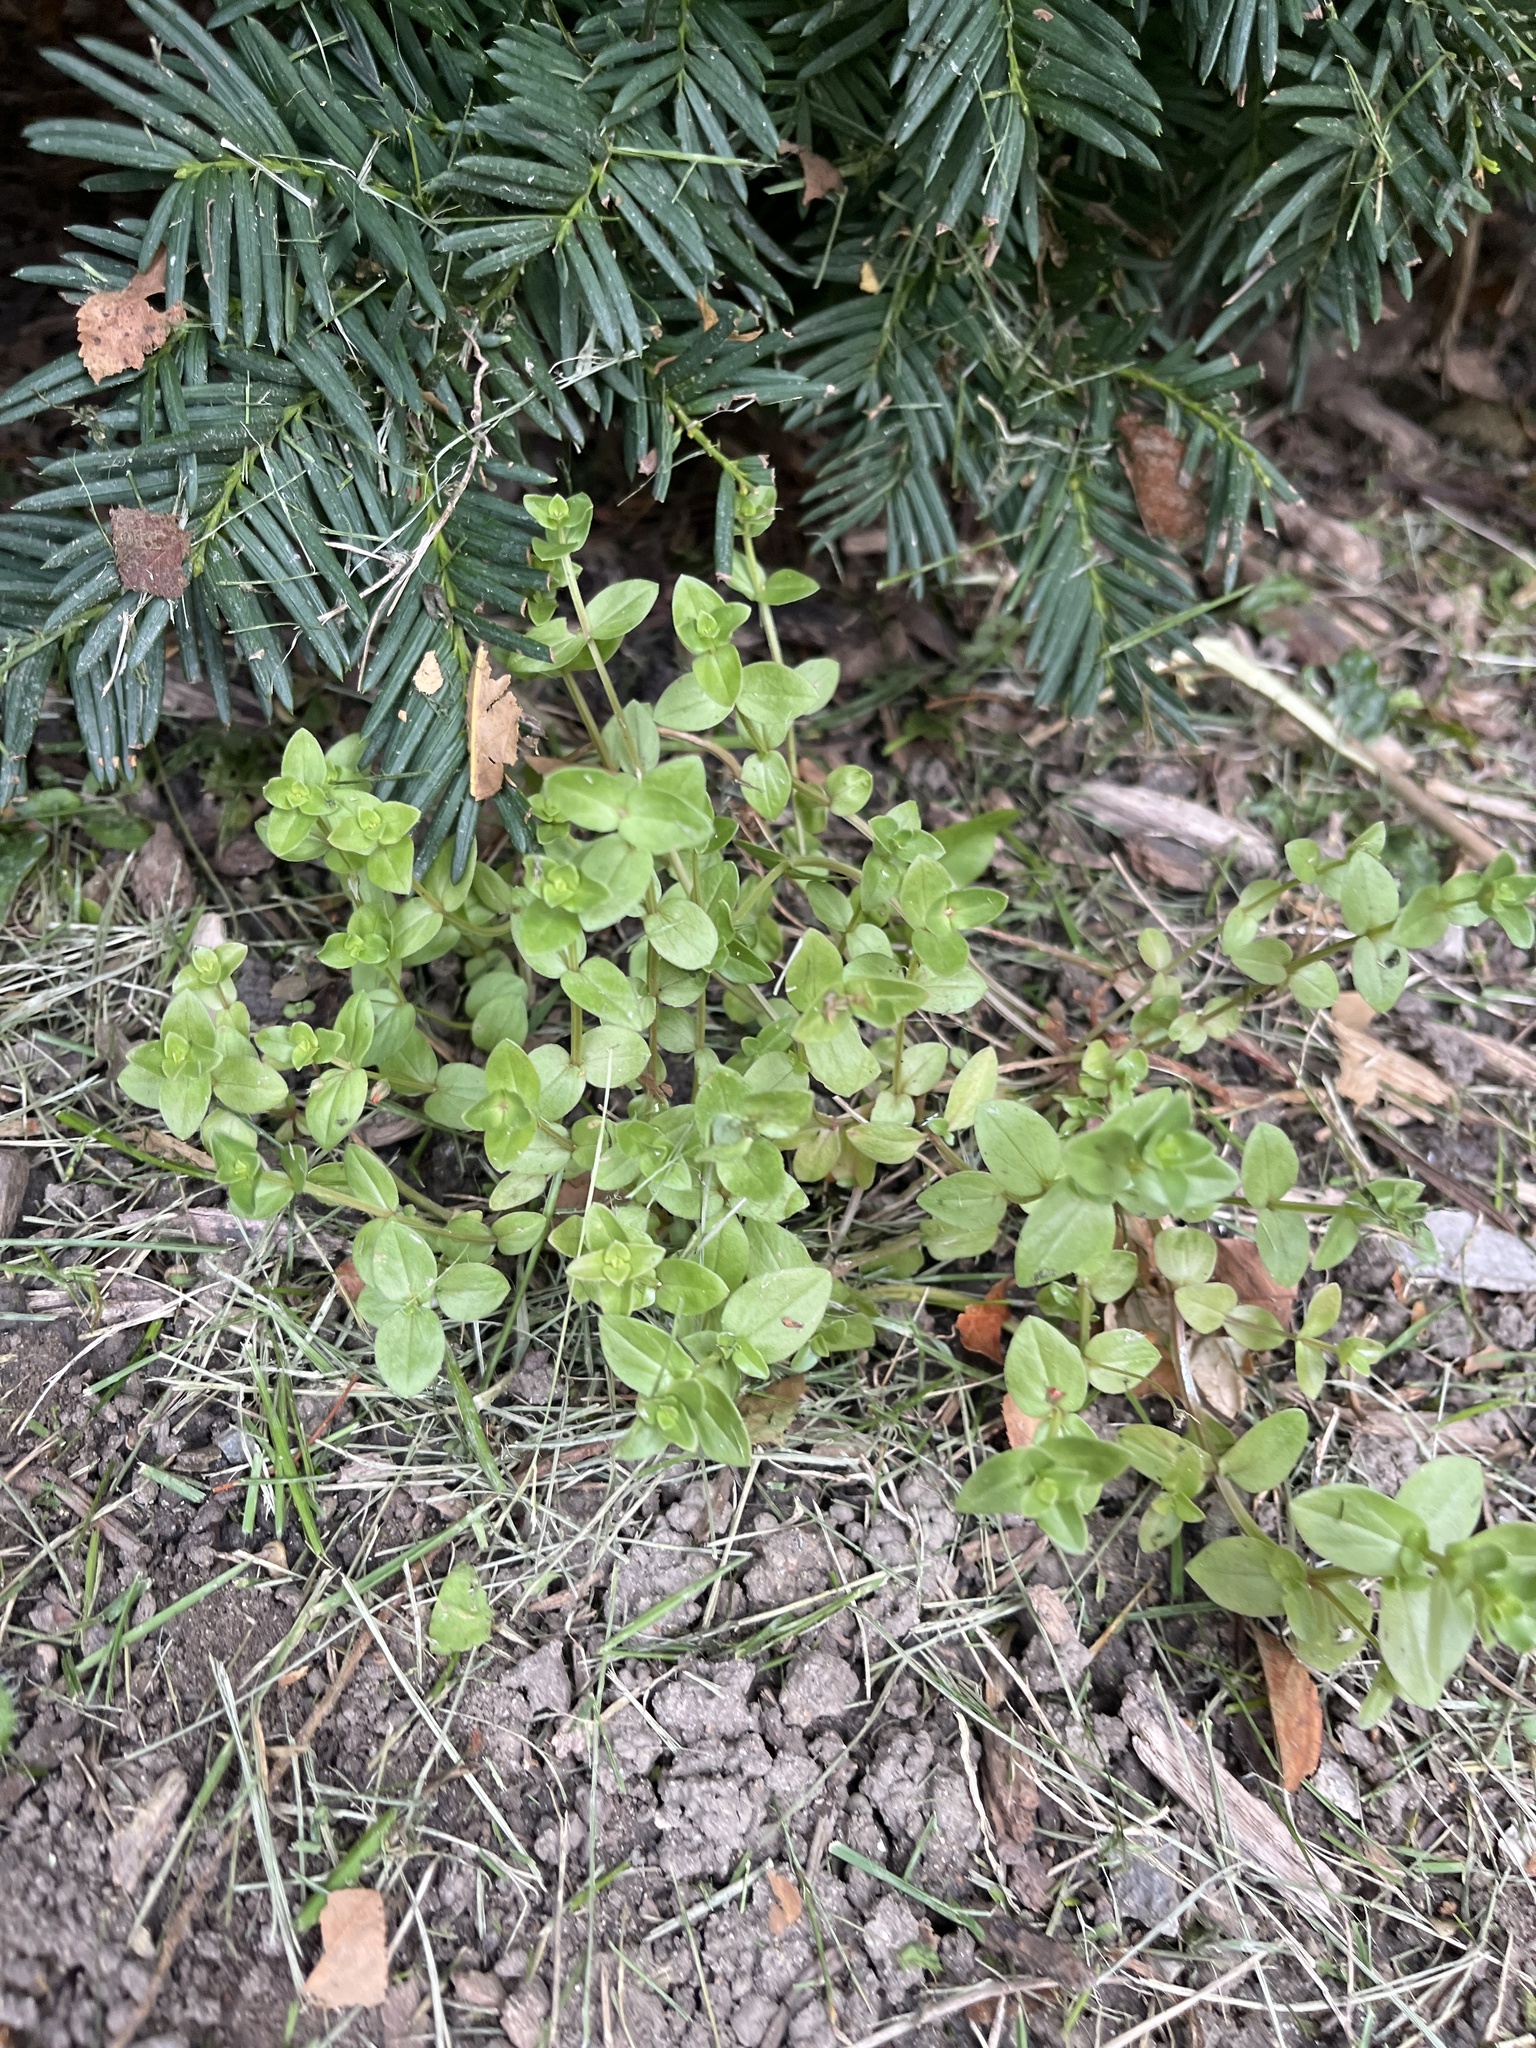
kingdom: Plantae
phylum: Tracheophyta
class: Magnoliopsida
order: Caryophyllales
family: Caryophyllaceae
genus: Stellaria
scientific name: Stellaria media
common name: Common chickweed
